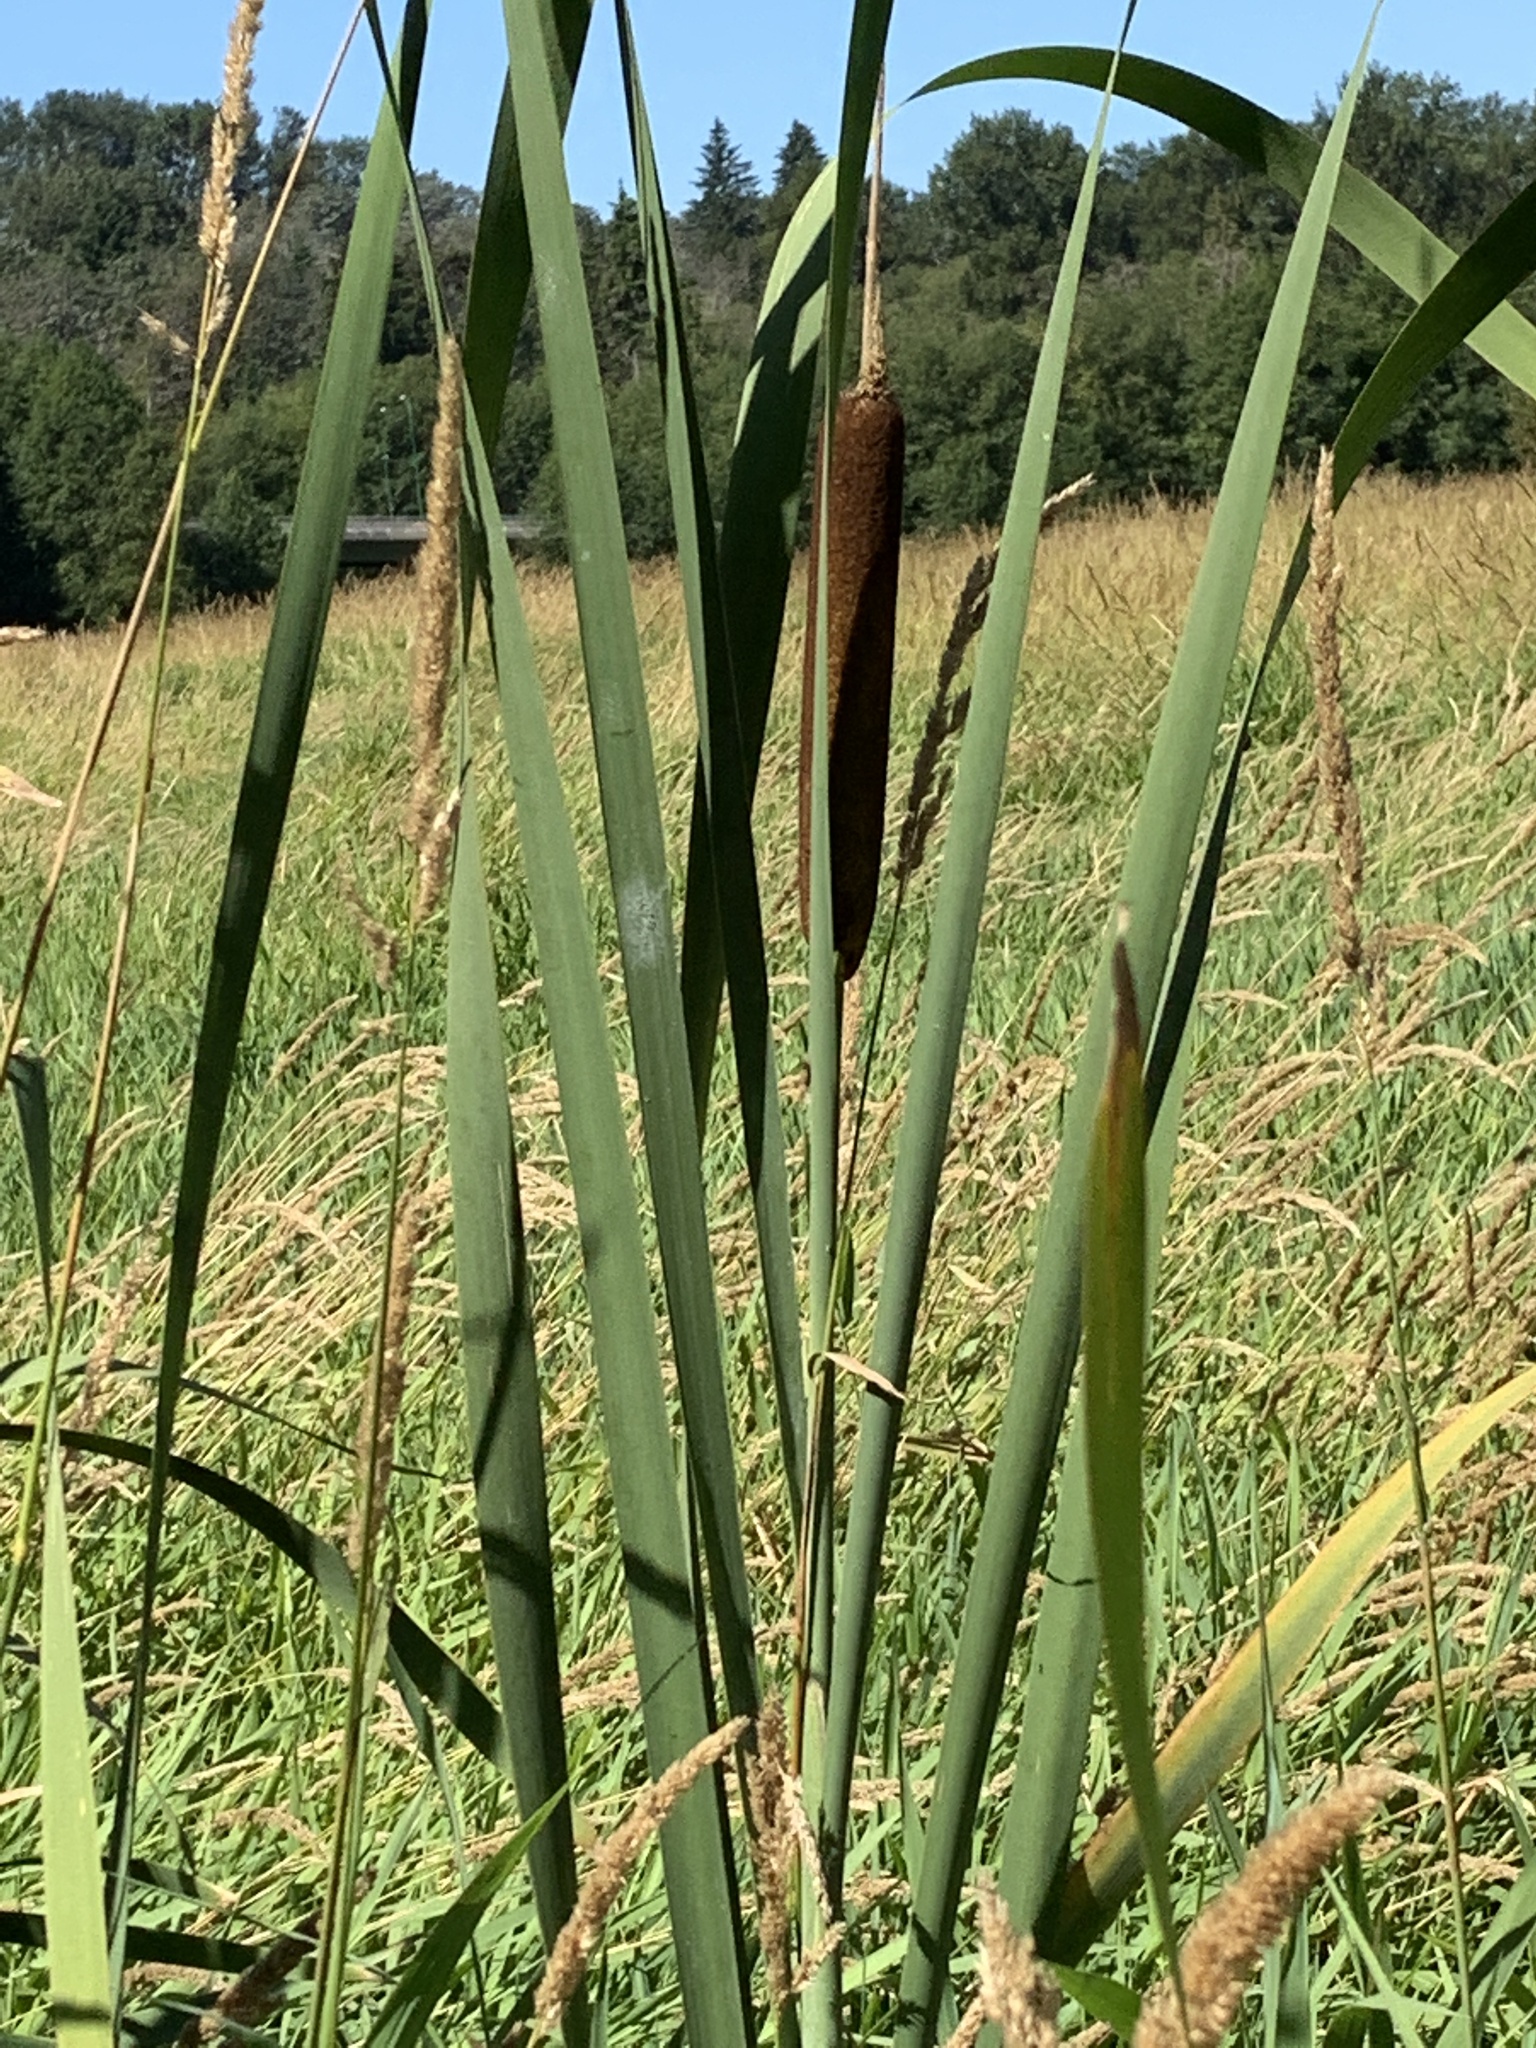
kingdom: Plantae
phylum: Tracheophyta
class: Liliopsida
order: Poales
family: Typhaceae
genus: Typha
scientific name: Typha latifolia
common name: Broadleaf cattail
